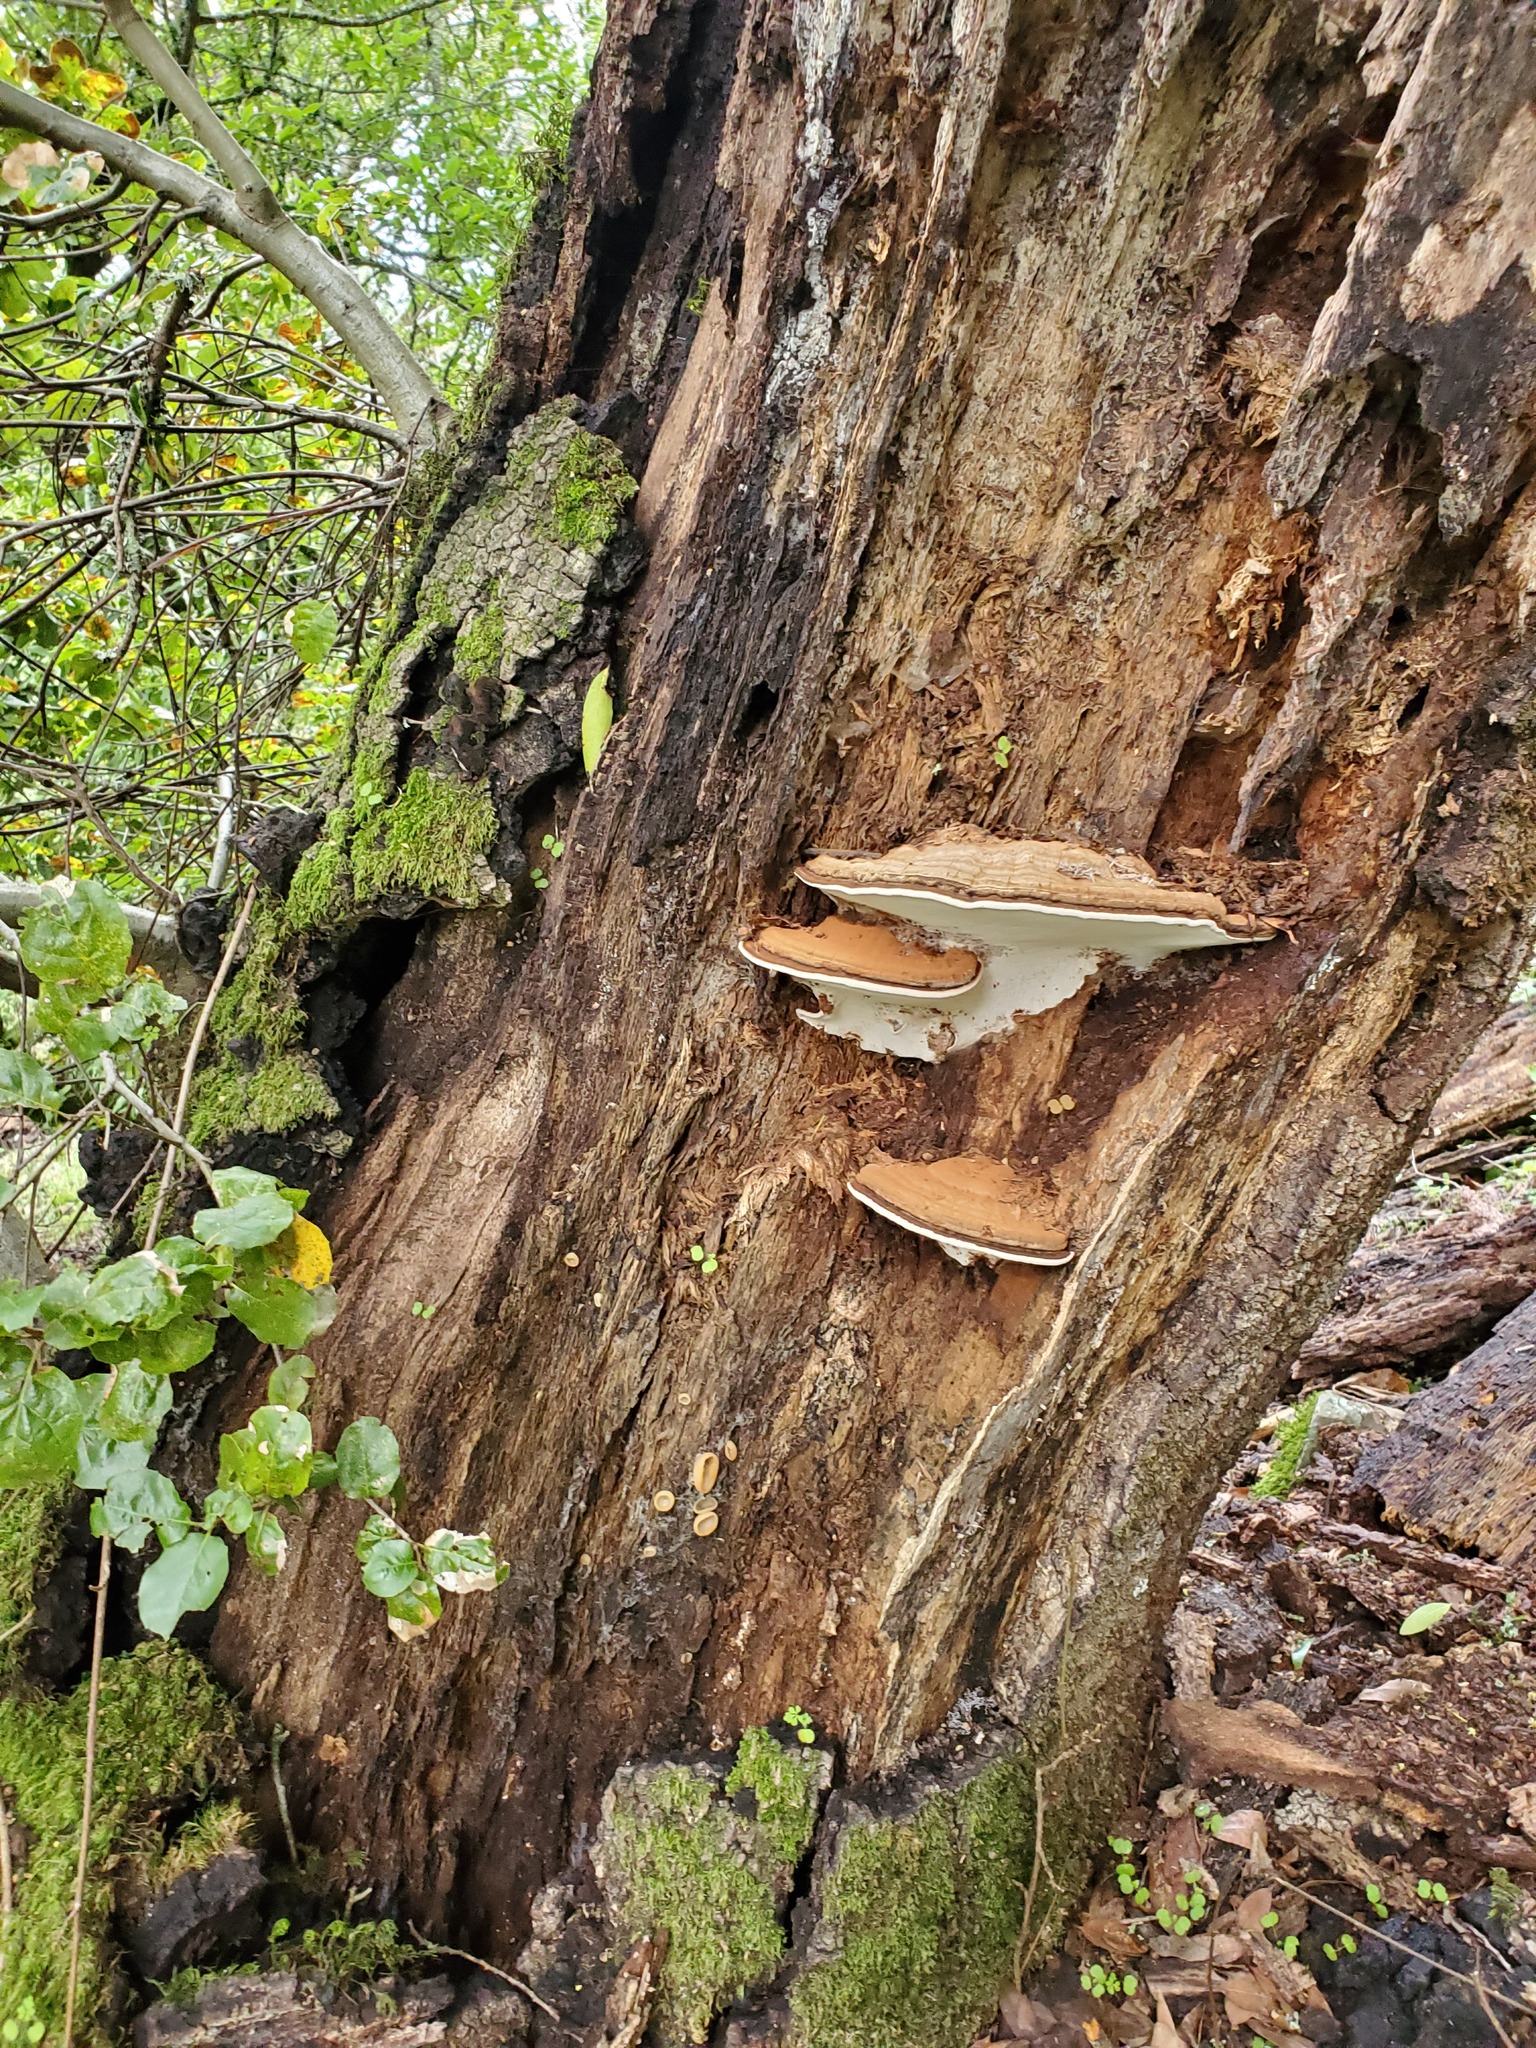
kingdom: Fungi
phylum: Basidiomycota
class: Agaricomycetes
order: Polyporales
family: Polyporaceae
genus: Ganoderma
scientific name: Ganoderma brownii
